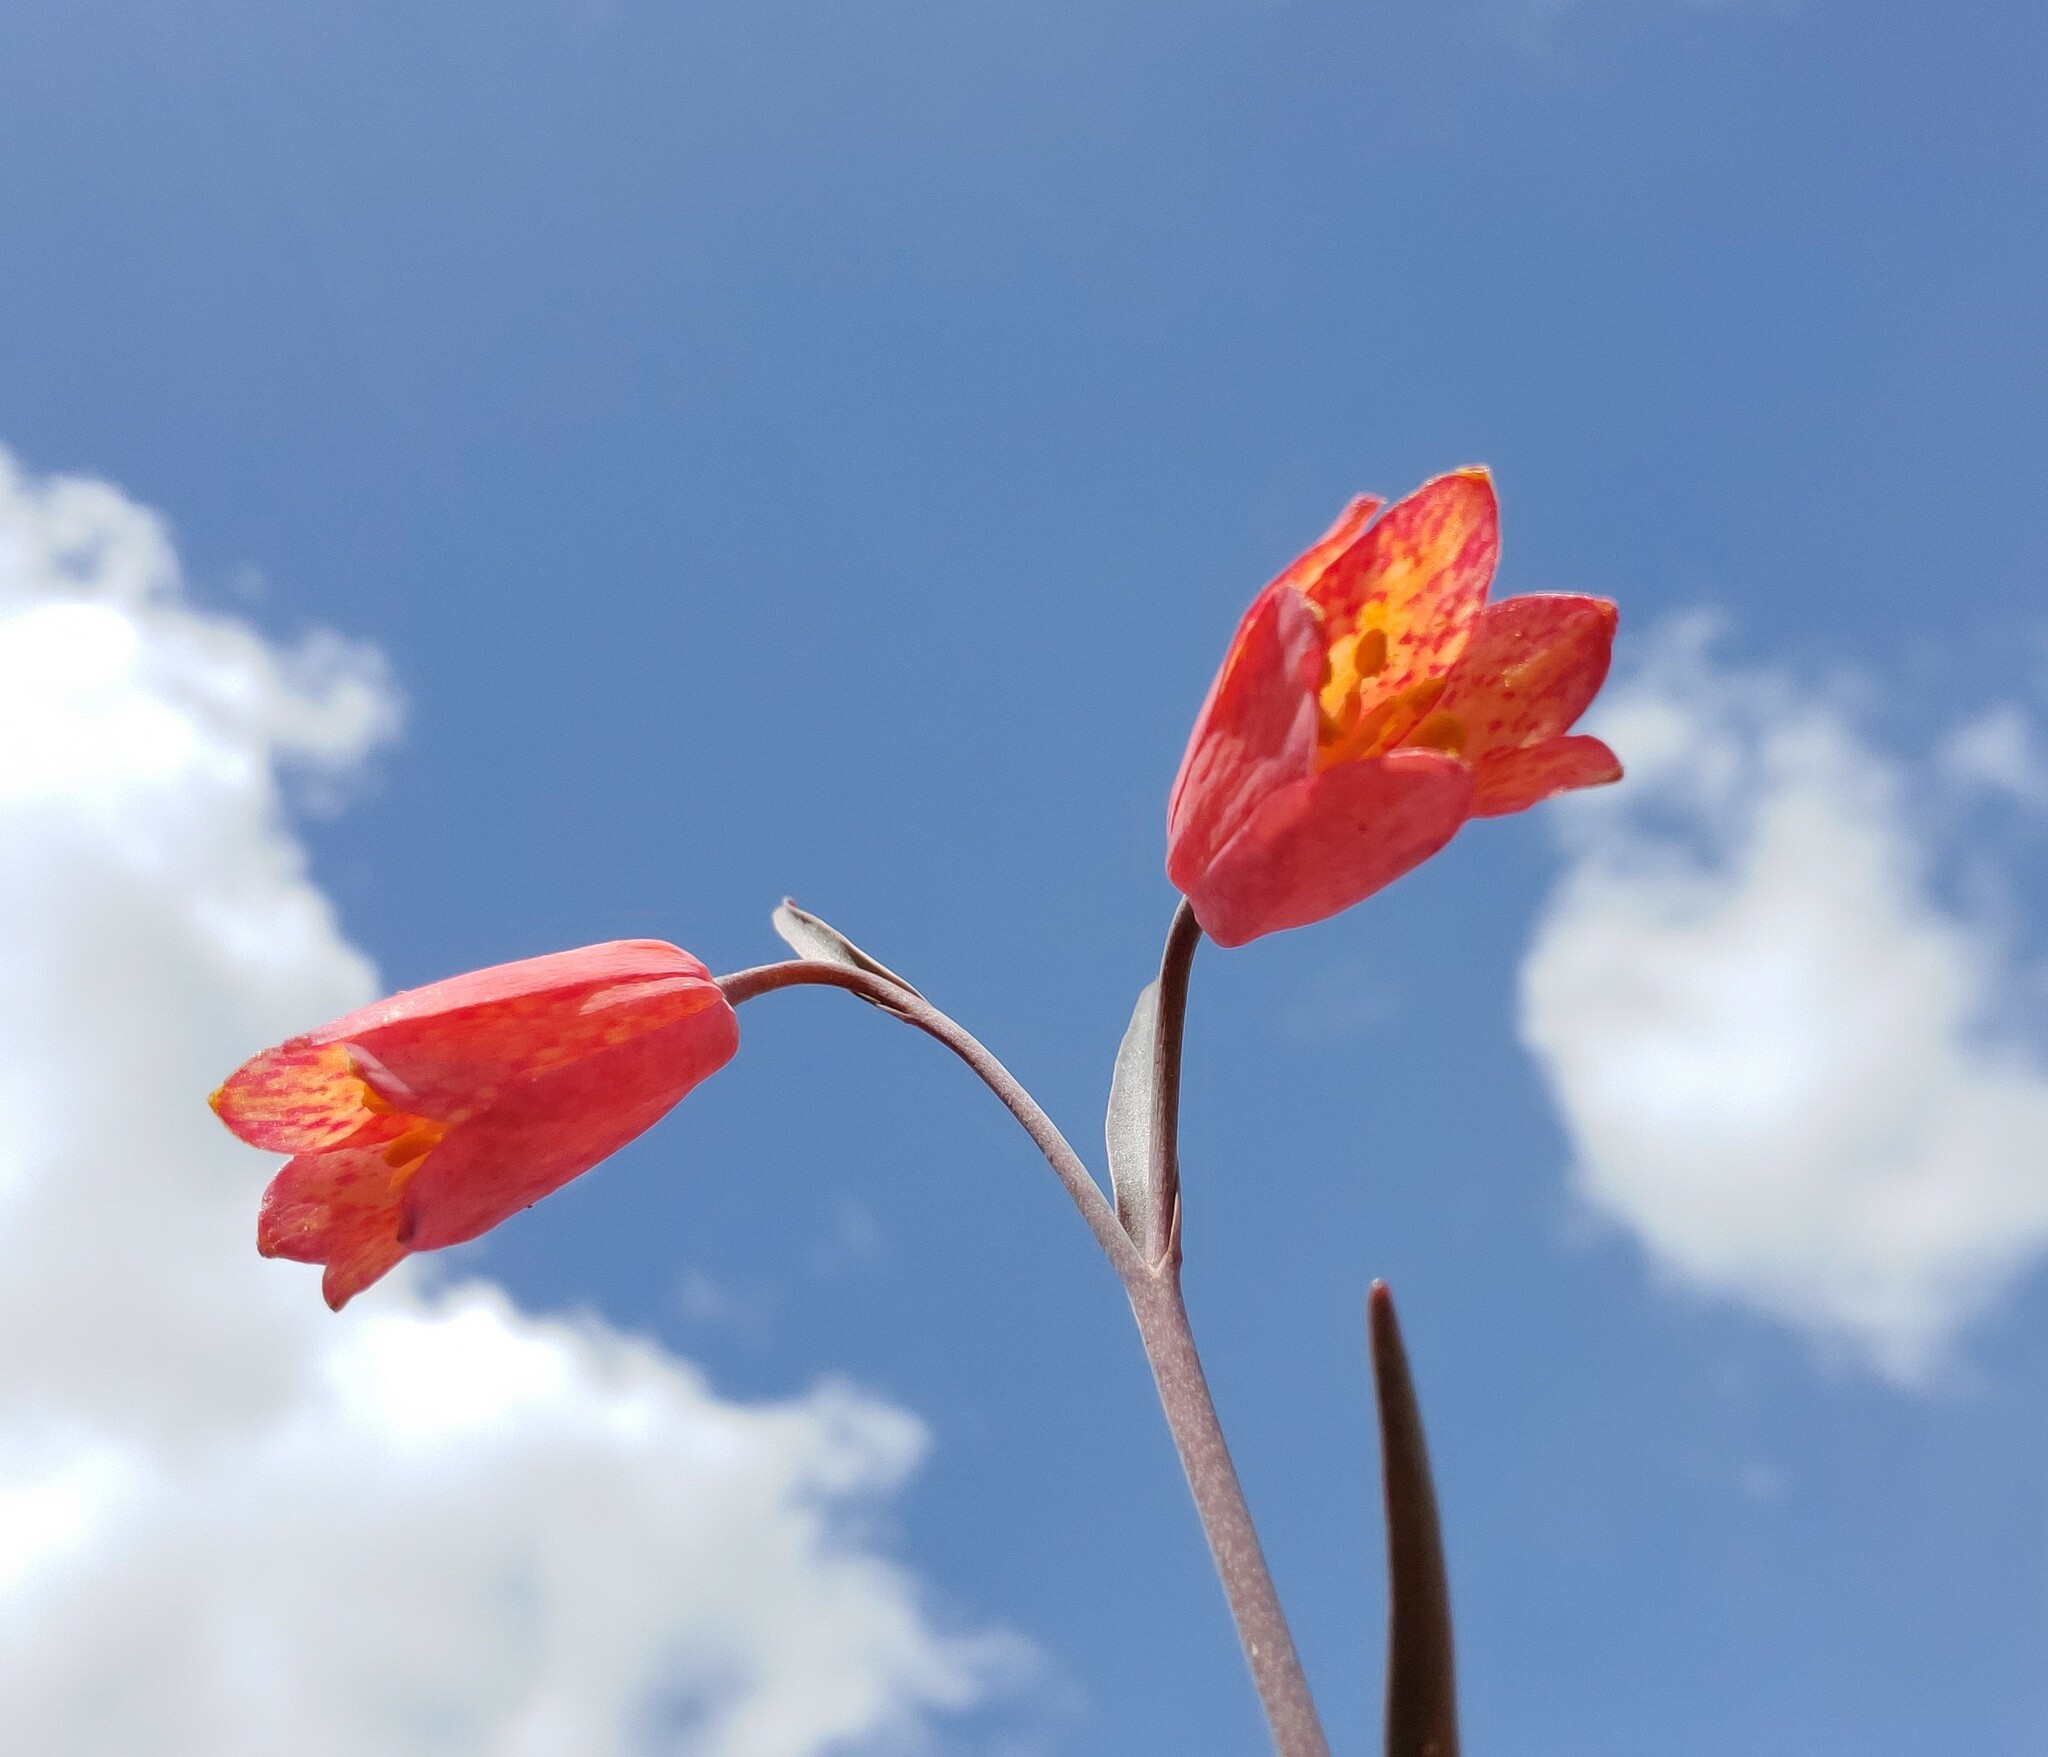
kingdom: Plantae
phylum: Tracheophyta
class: Liliopsida
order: Liliales
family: Liliaceae
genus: Fritillaria
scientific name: Fritillaria recurva
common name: Scarlet fritillary
